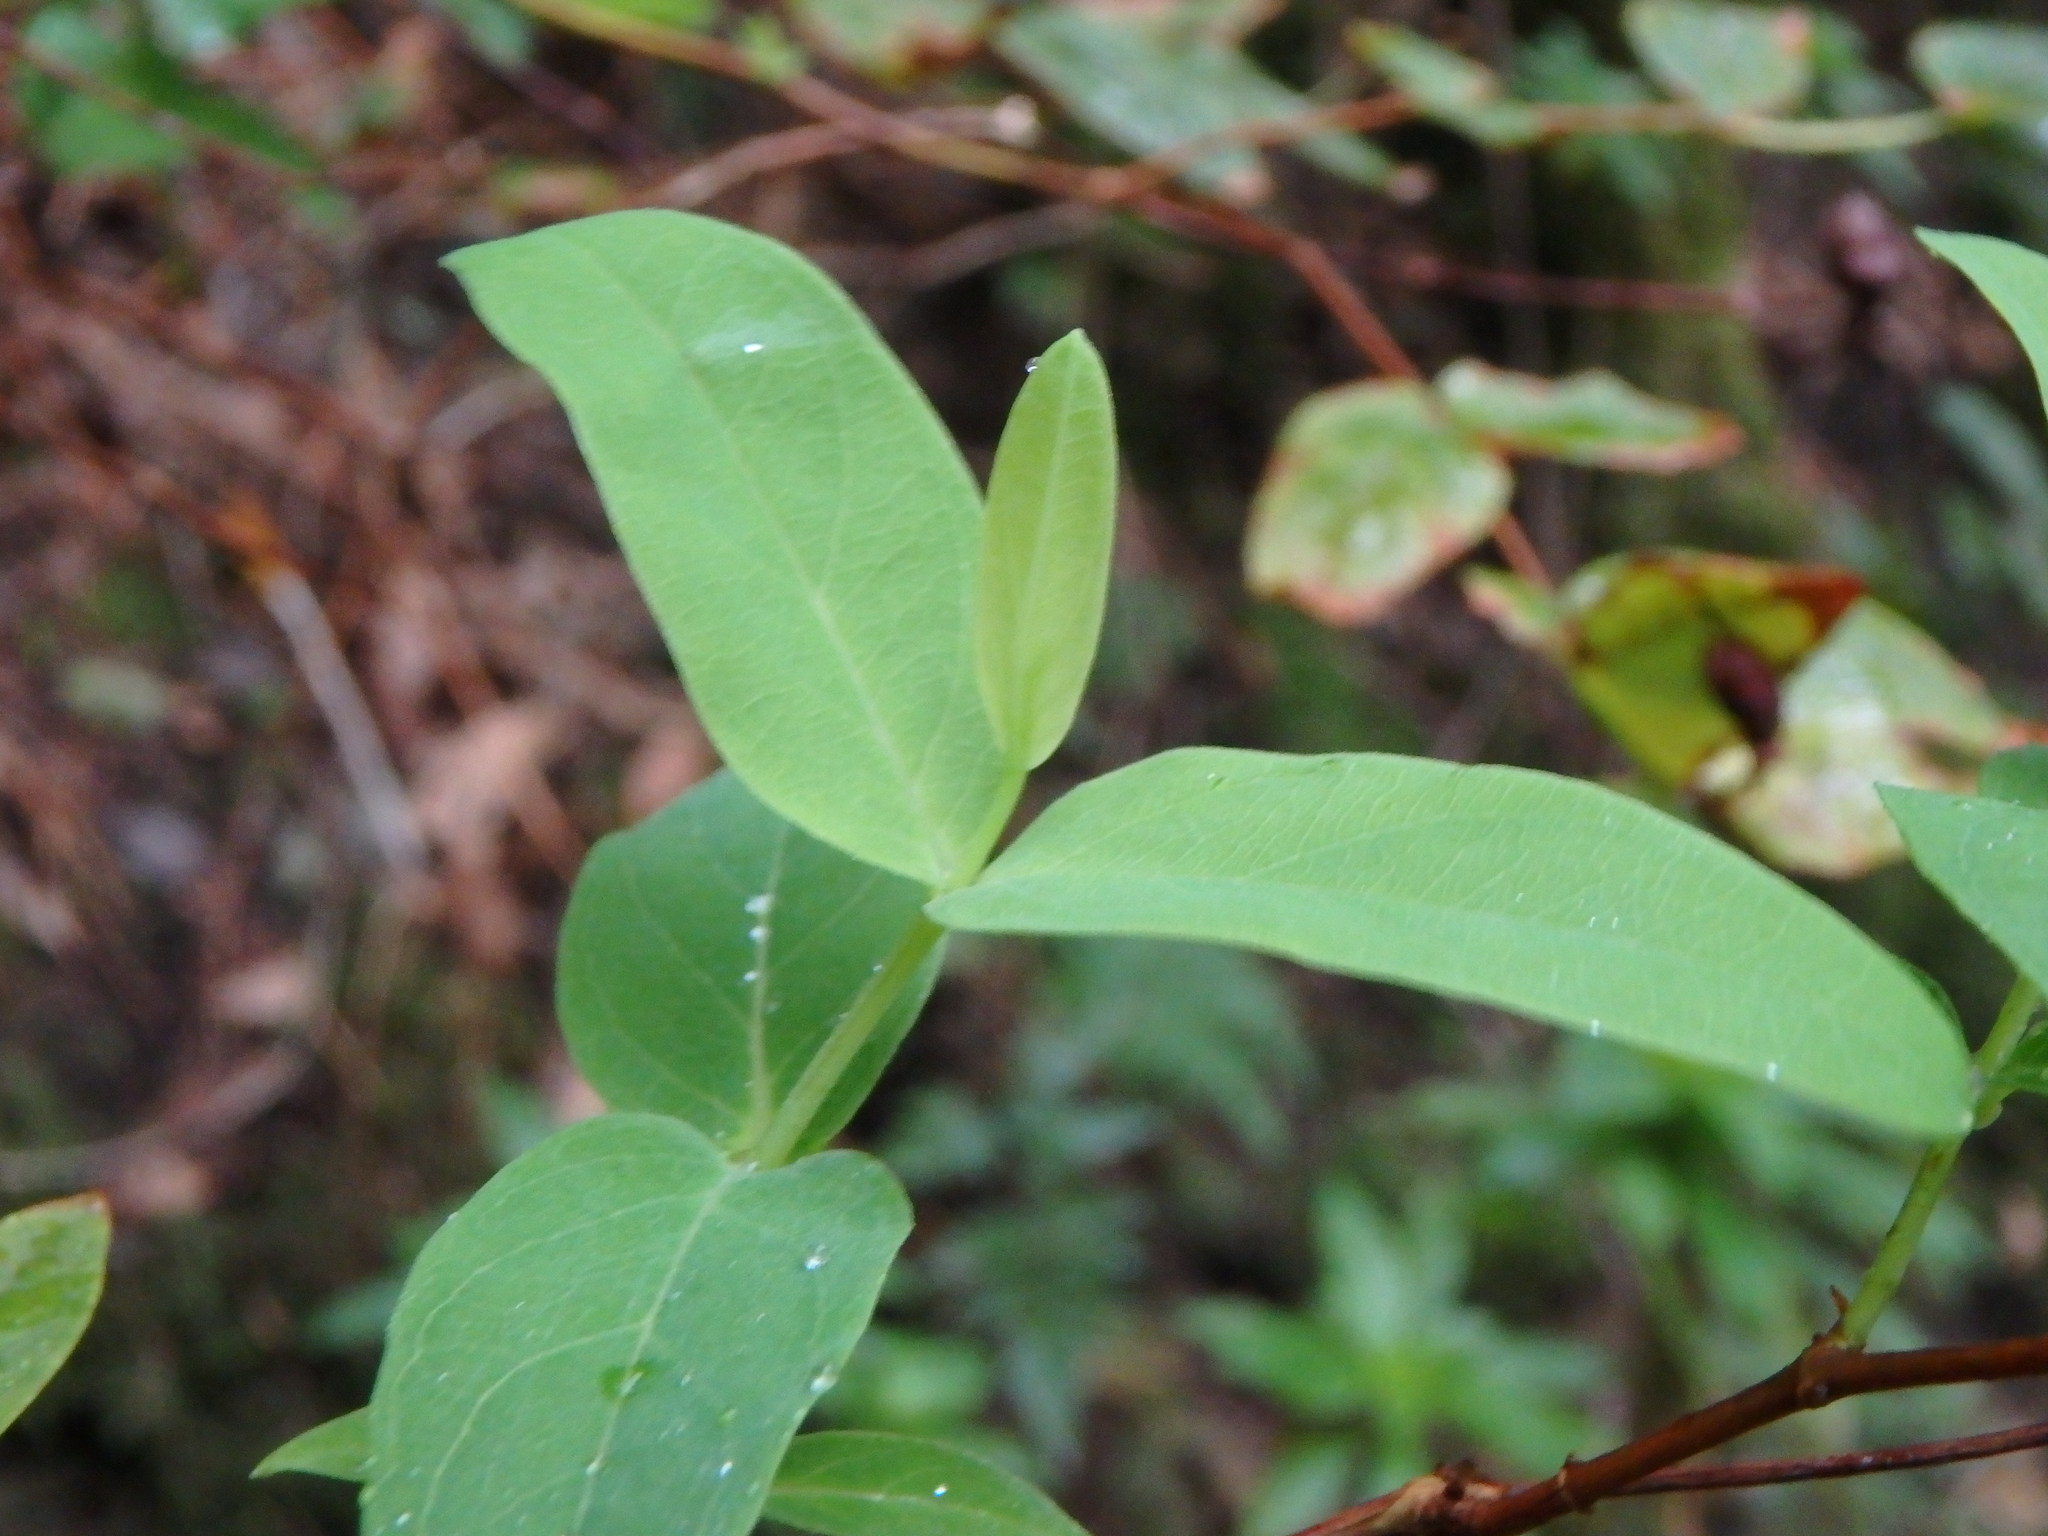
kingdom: Plantae
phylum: Tracheophyta
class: Magnoliopsida
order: Malpighiales
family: Hypericaceae
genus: Hypericum
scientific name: Hypericum grandifolium
